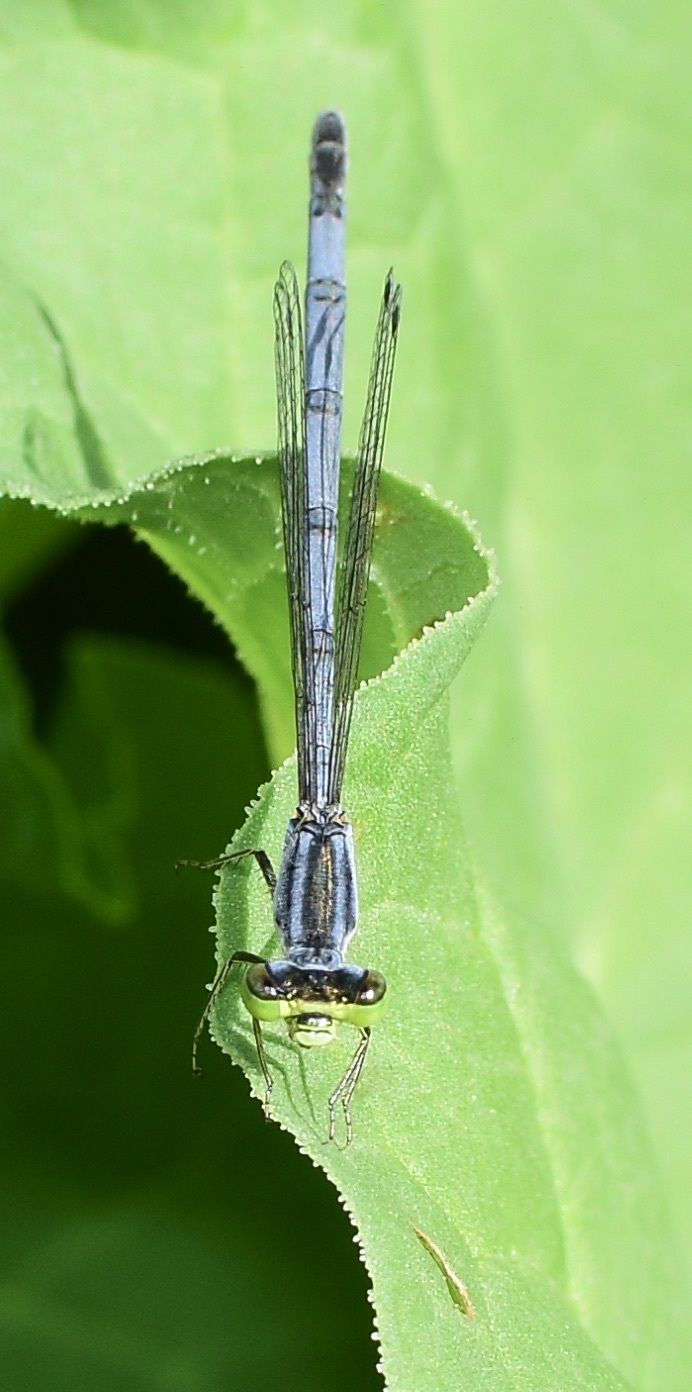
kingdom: Animalia
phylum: Arthropoda
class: Insecta
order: Odonata
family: Coenagrionidae
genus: Ischnura
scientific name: Ischnura verticalis
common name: Eastern forktail
